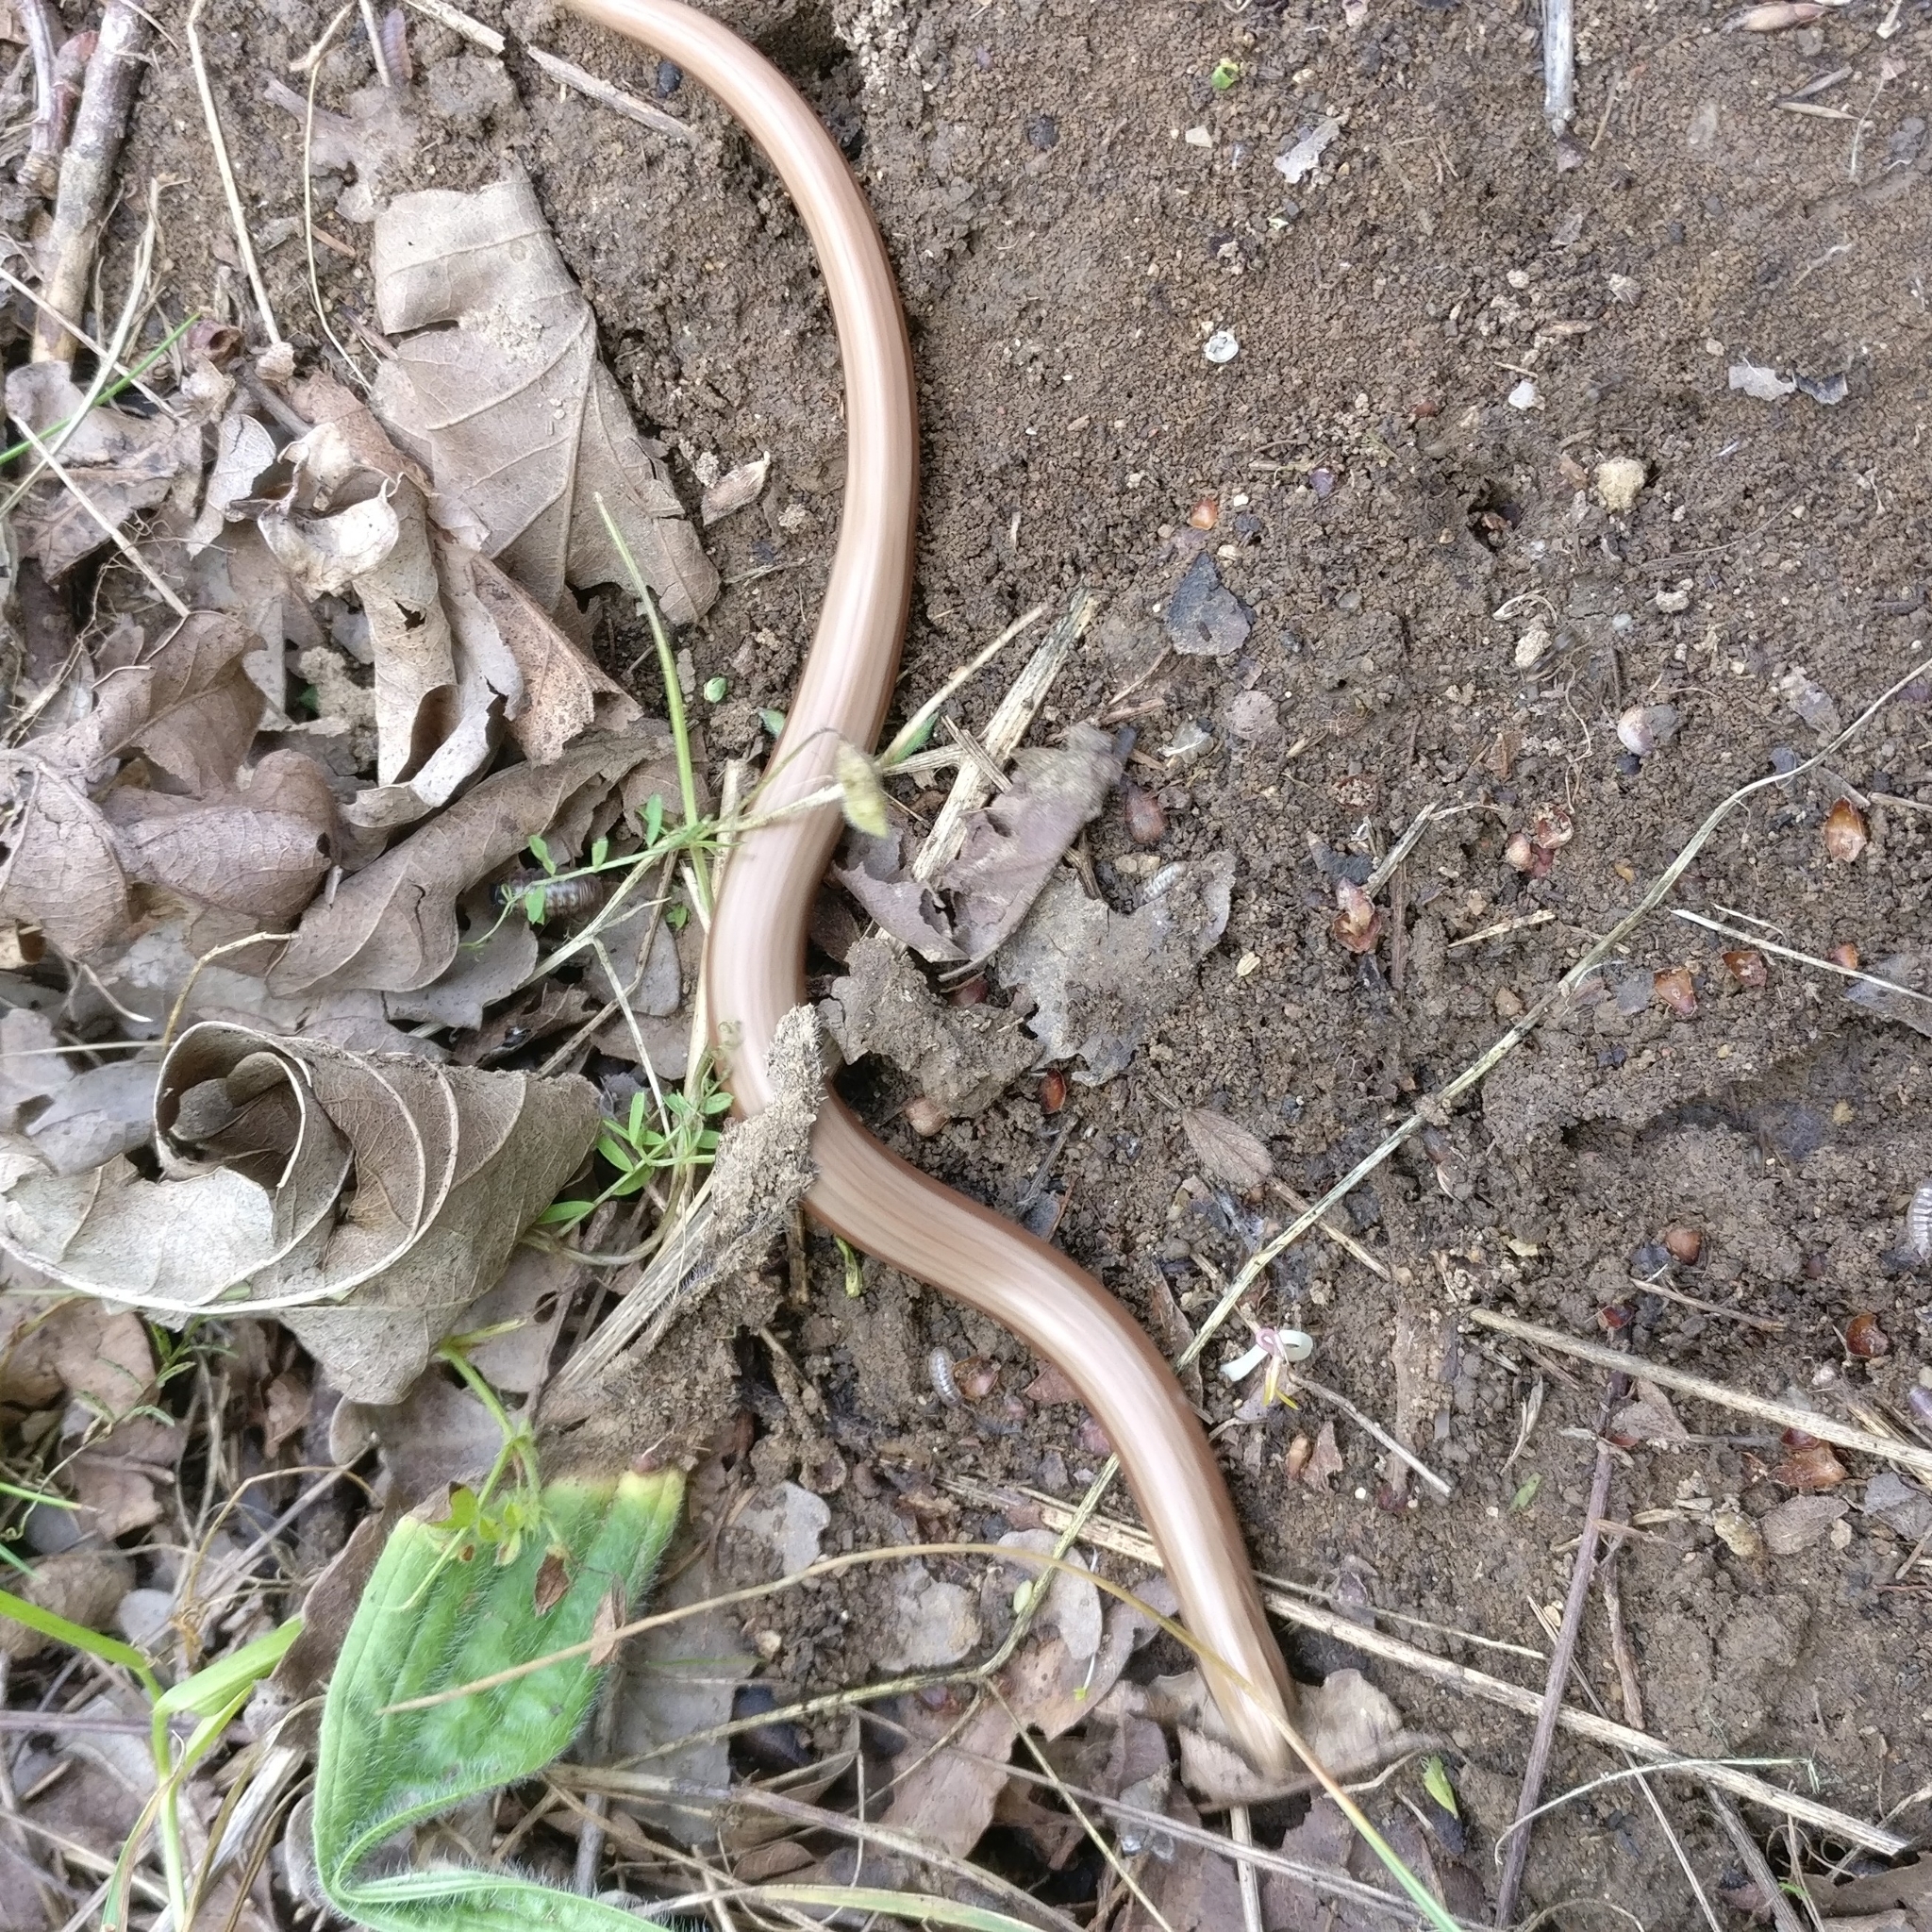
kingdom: Animalia
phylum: Chordata
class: Squamata
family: Anguidae
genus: Anguis
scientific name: Anguis fragilis
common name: Slow worm
